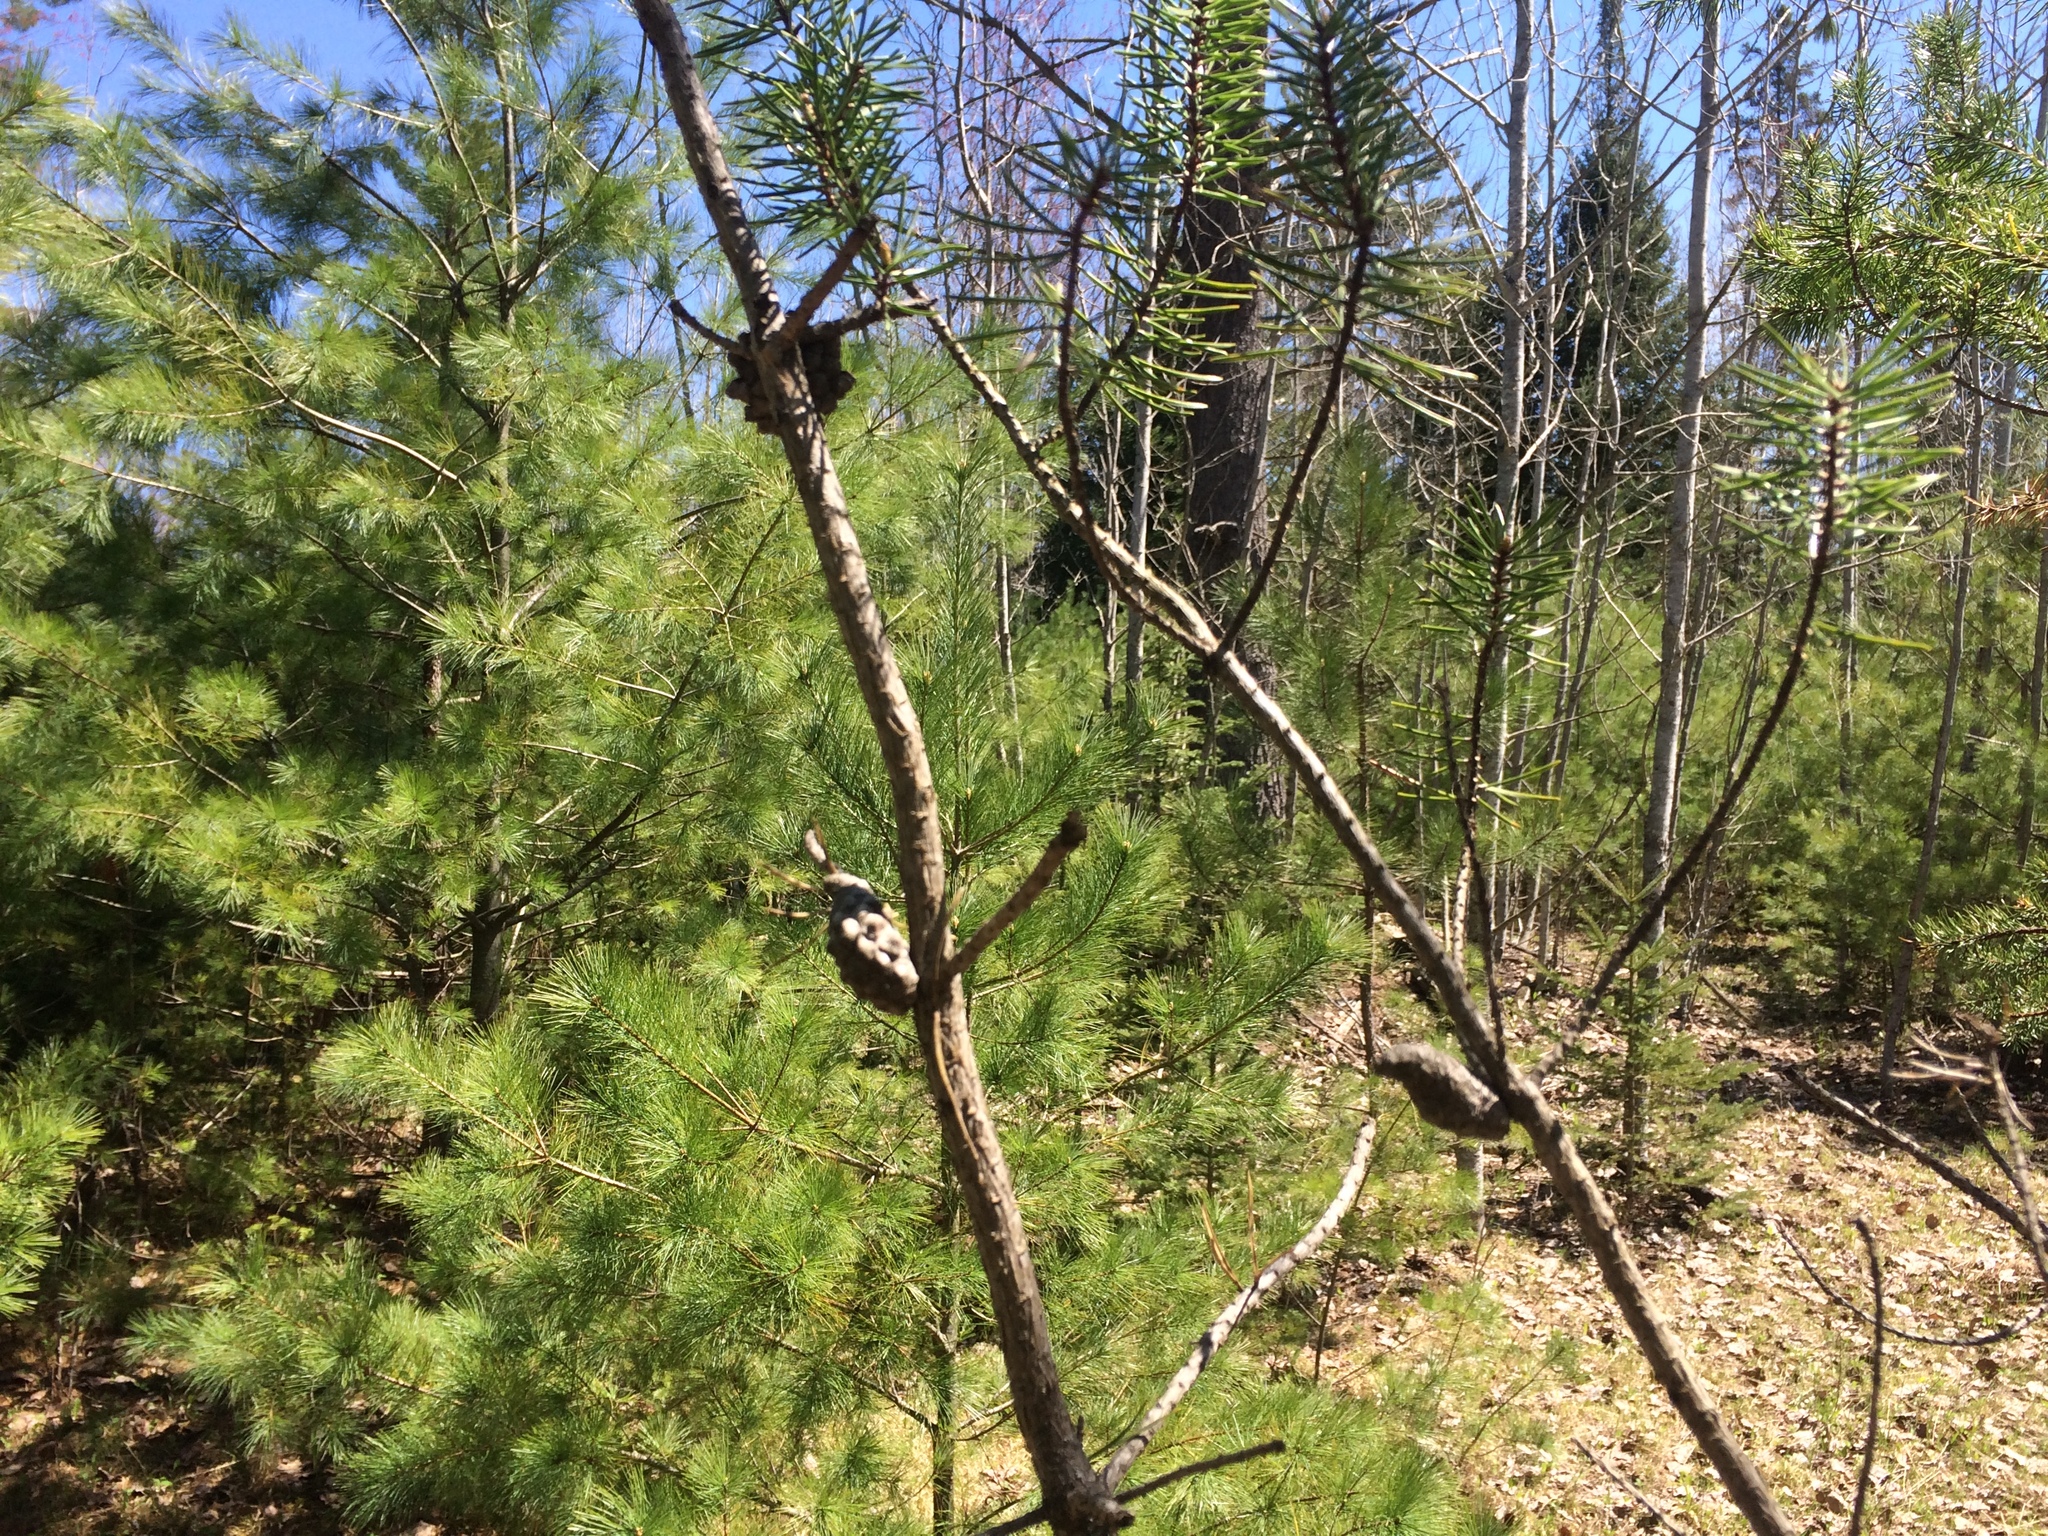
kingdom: Plantae
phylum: Tracheophyta
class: Pinopsida
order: Pinales
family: Pinaceae
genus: Pinus
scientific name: Pinus banksiana
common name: Jack pine
